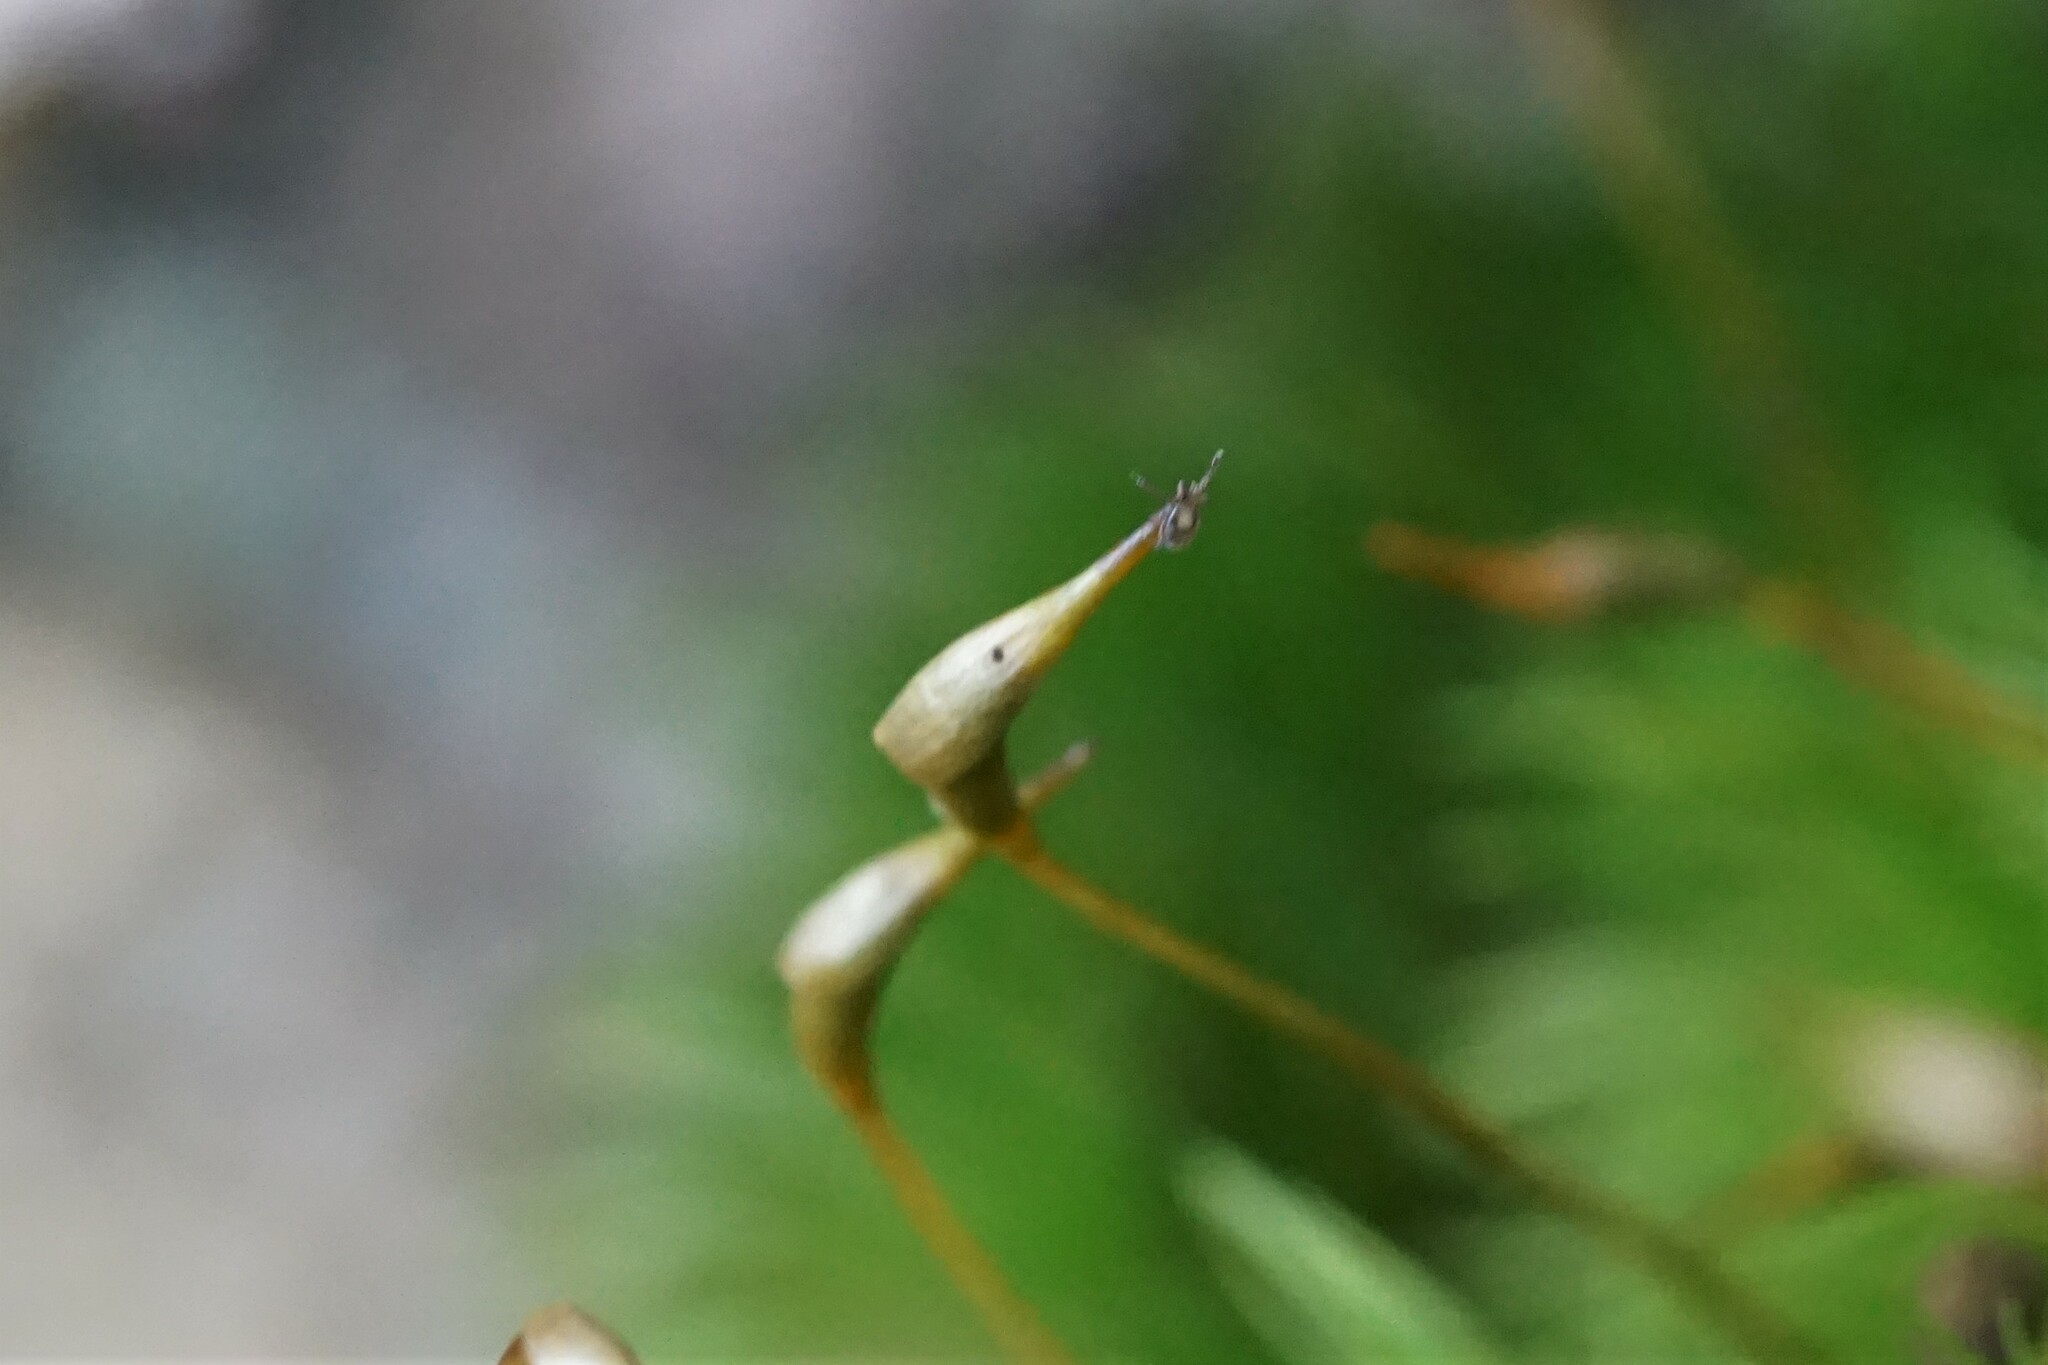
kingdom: Animalia
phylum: Arthropoda
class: Arachnida
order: Ixodida
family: Ixodidae
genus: Amblyomma
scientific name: Amblyomma americanum
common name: Lone star tick
